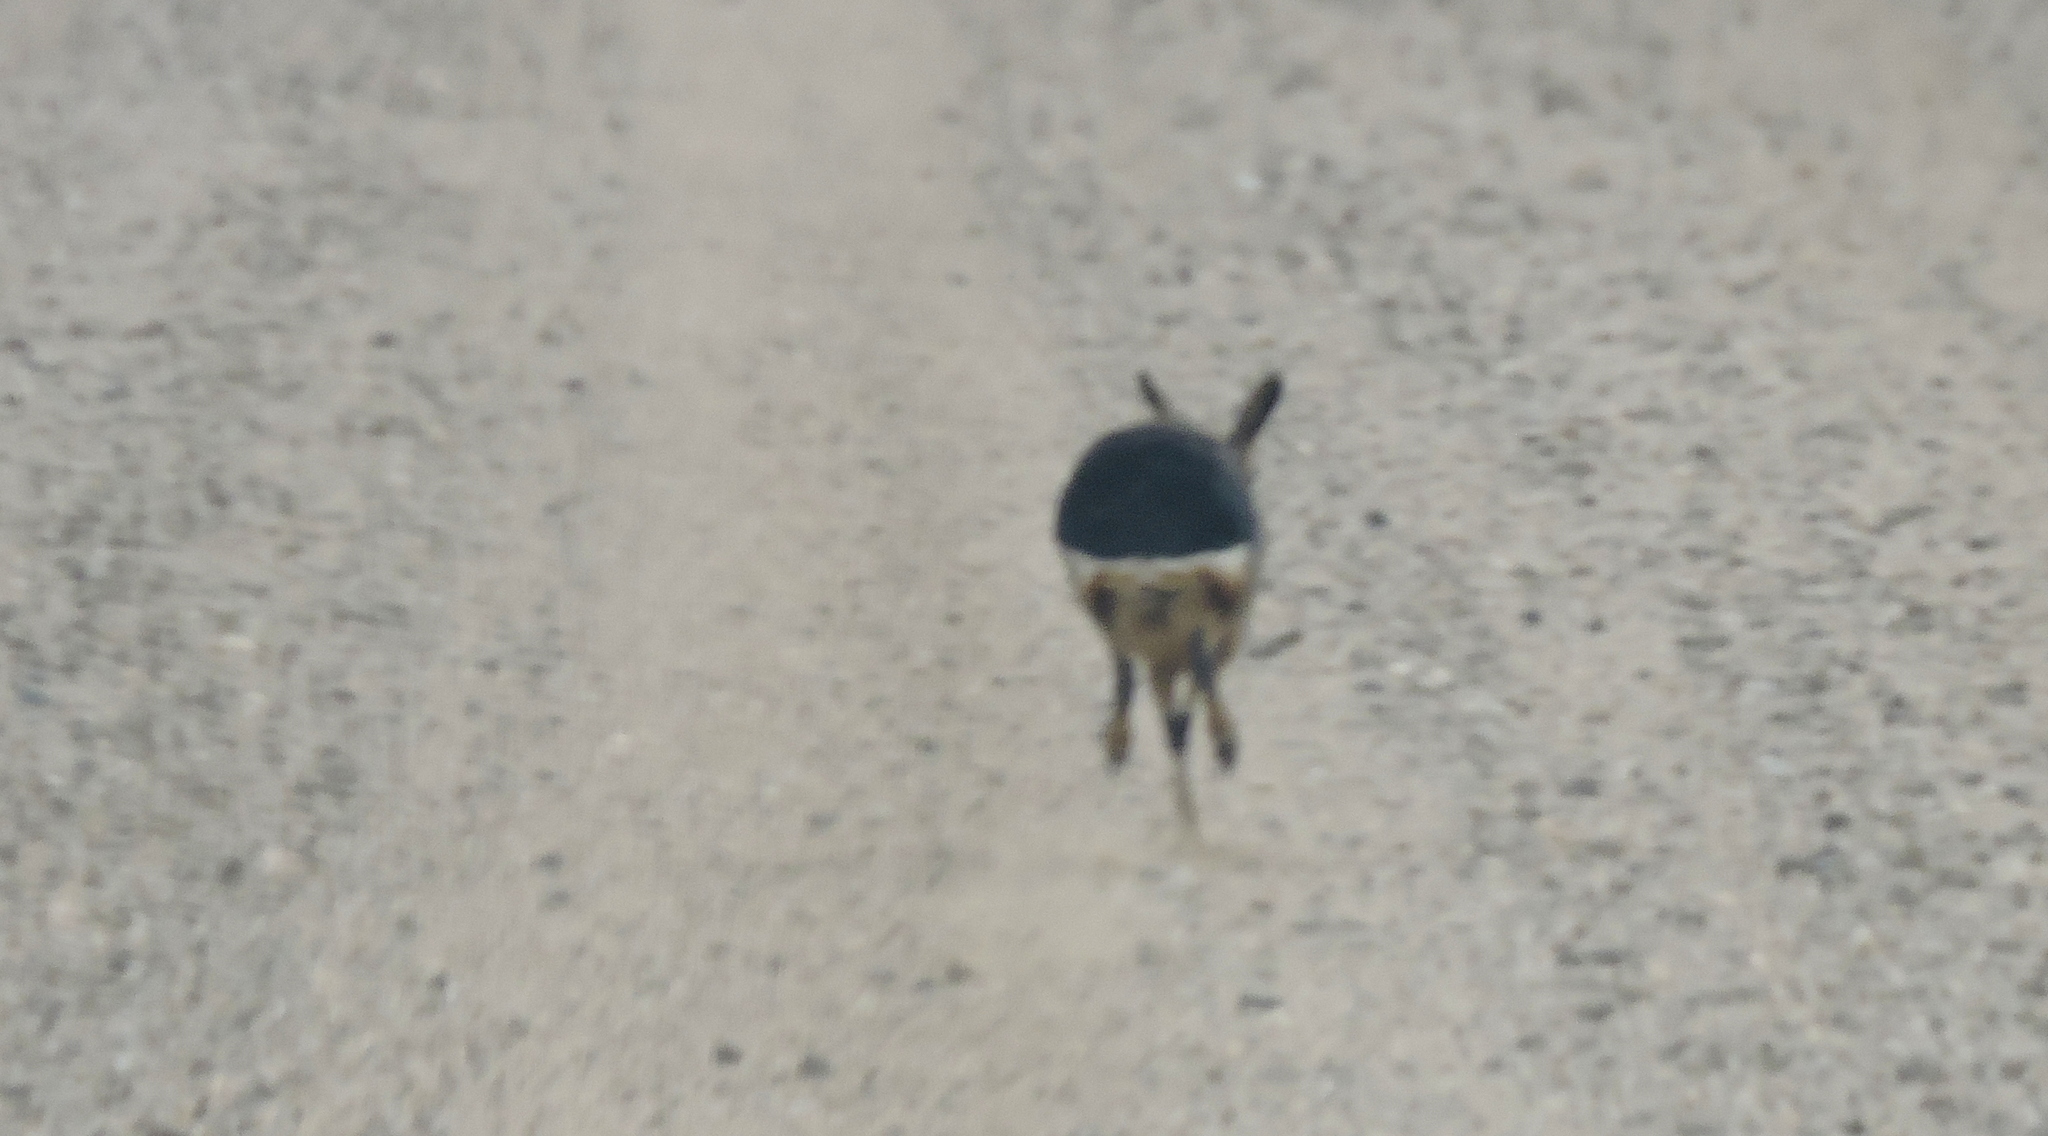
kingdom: Animalia
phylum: Chordata
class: Mammalia
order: Rodentia
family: Caviidae
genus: Dolichotis
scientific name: Dolichotis patagonum
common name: Patagonian mara
